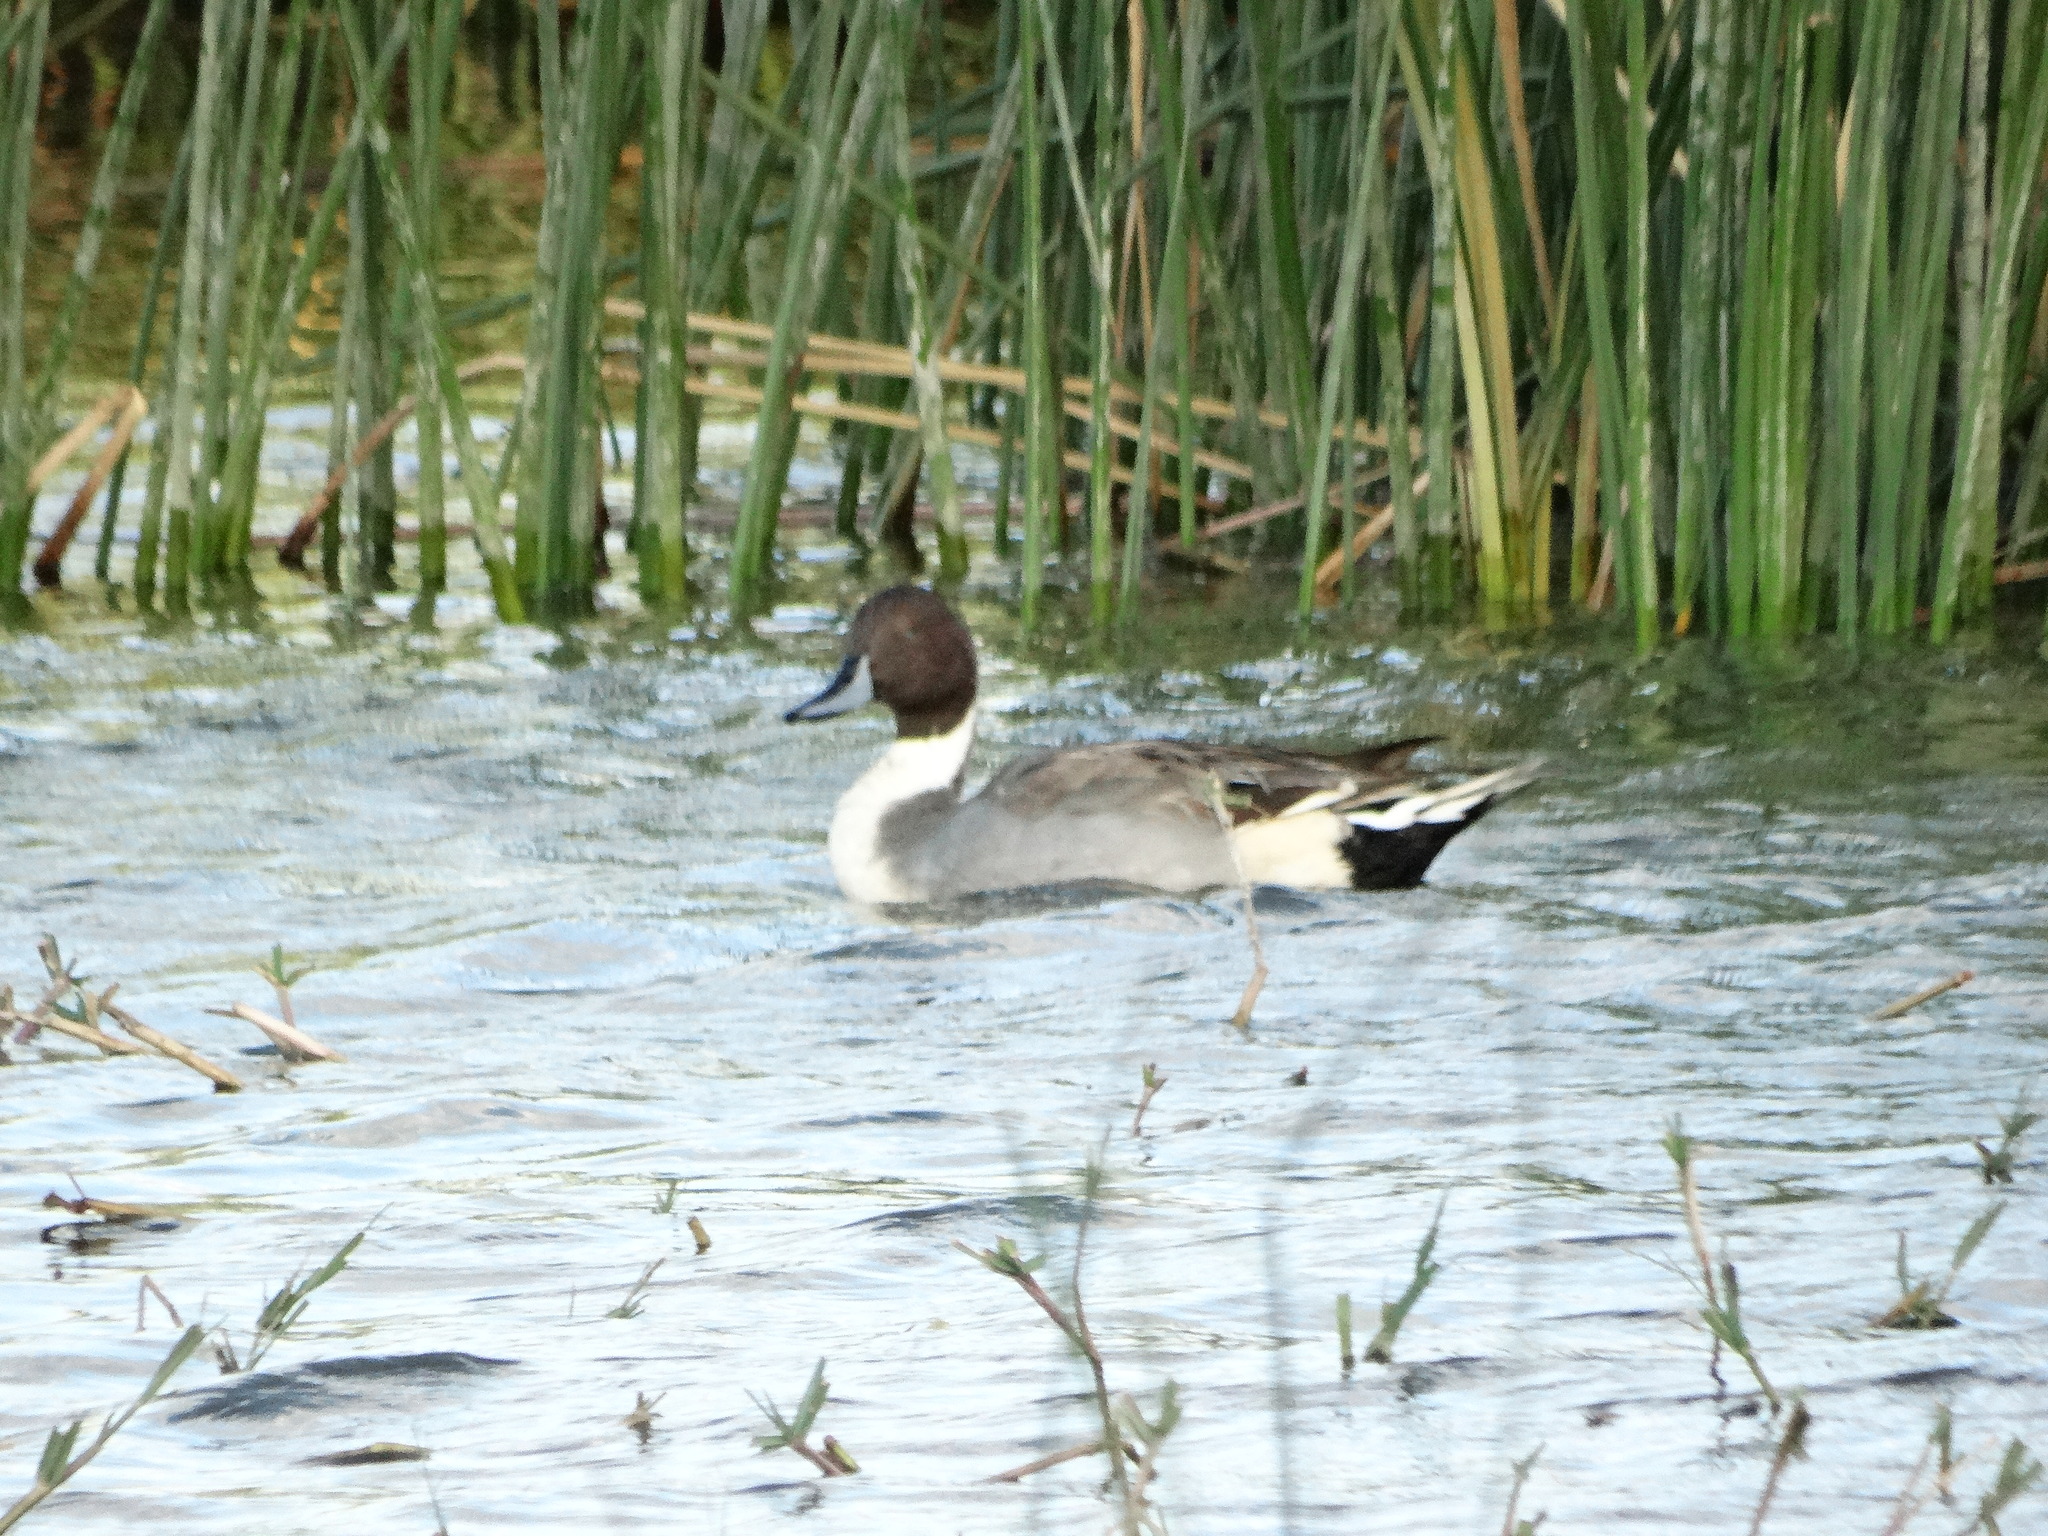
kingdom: Animalia
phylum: Chordata
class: Aves
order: Anseriformes
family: Anatidae
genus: Anas
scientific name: Anas acuta
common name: Northern pintail
